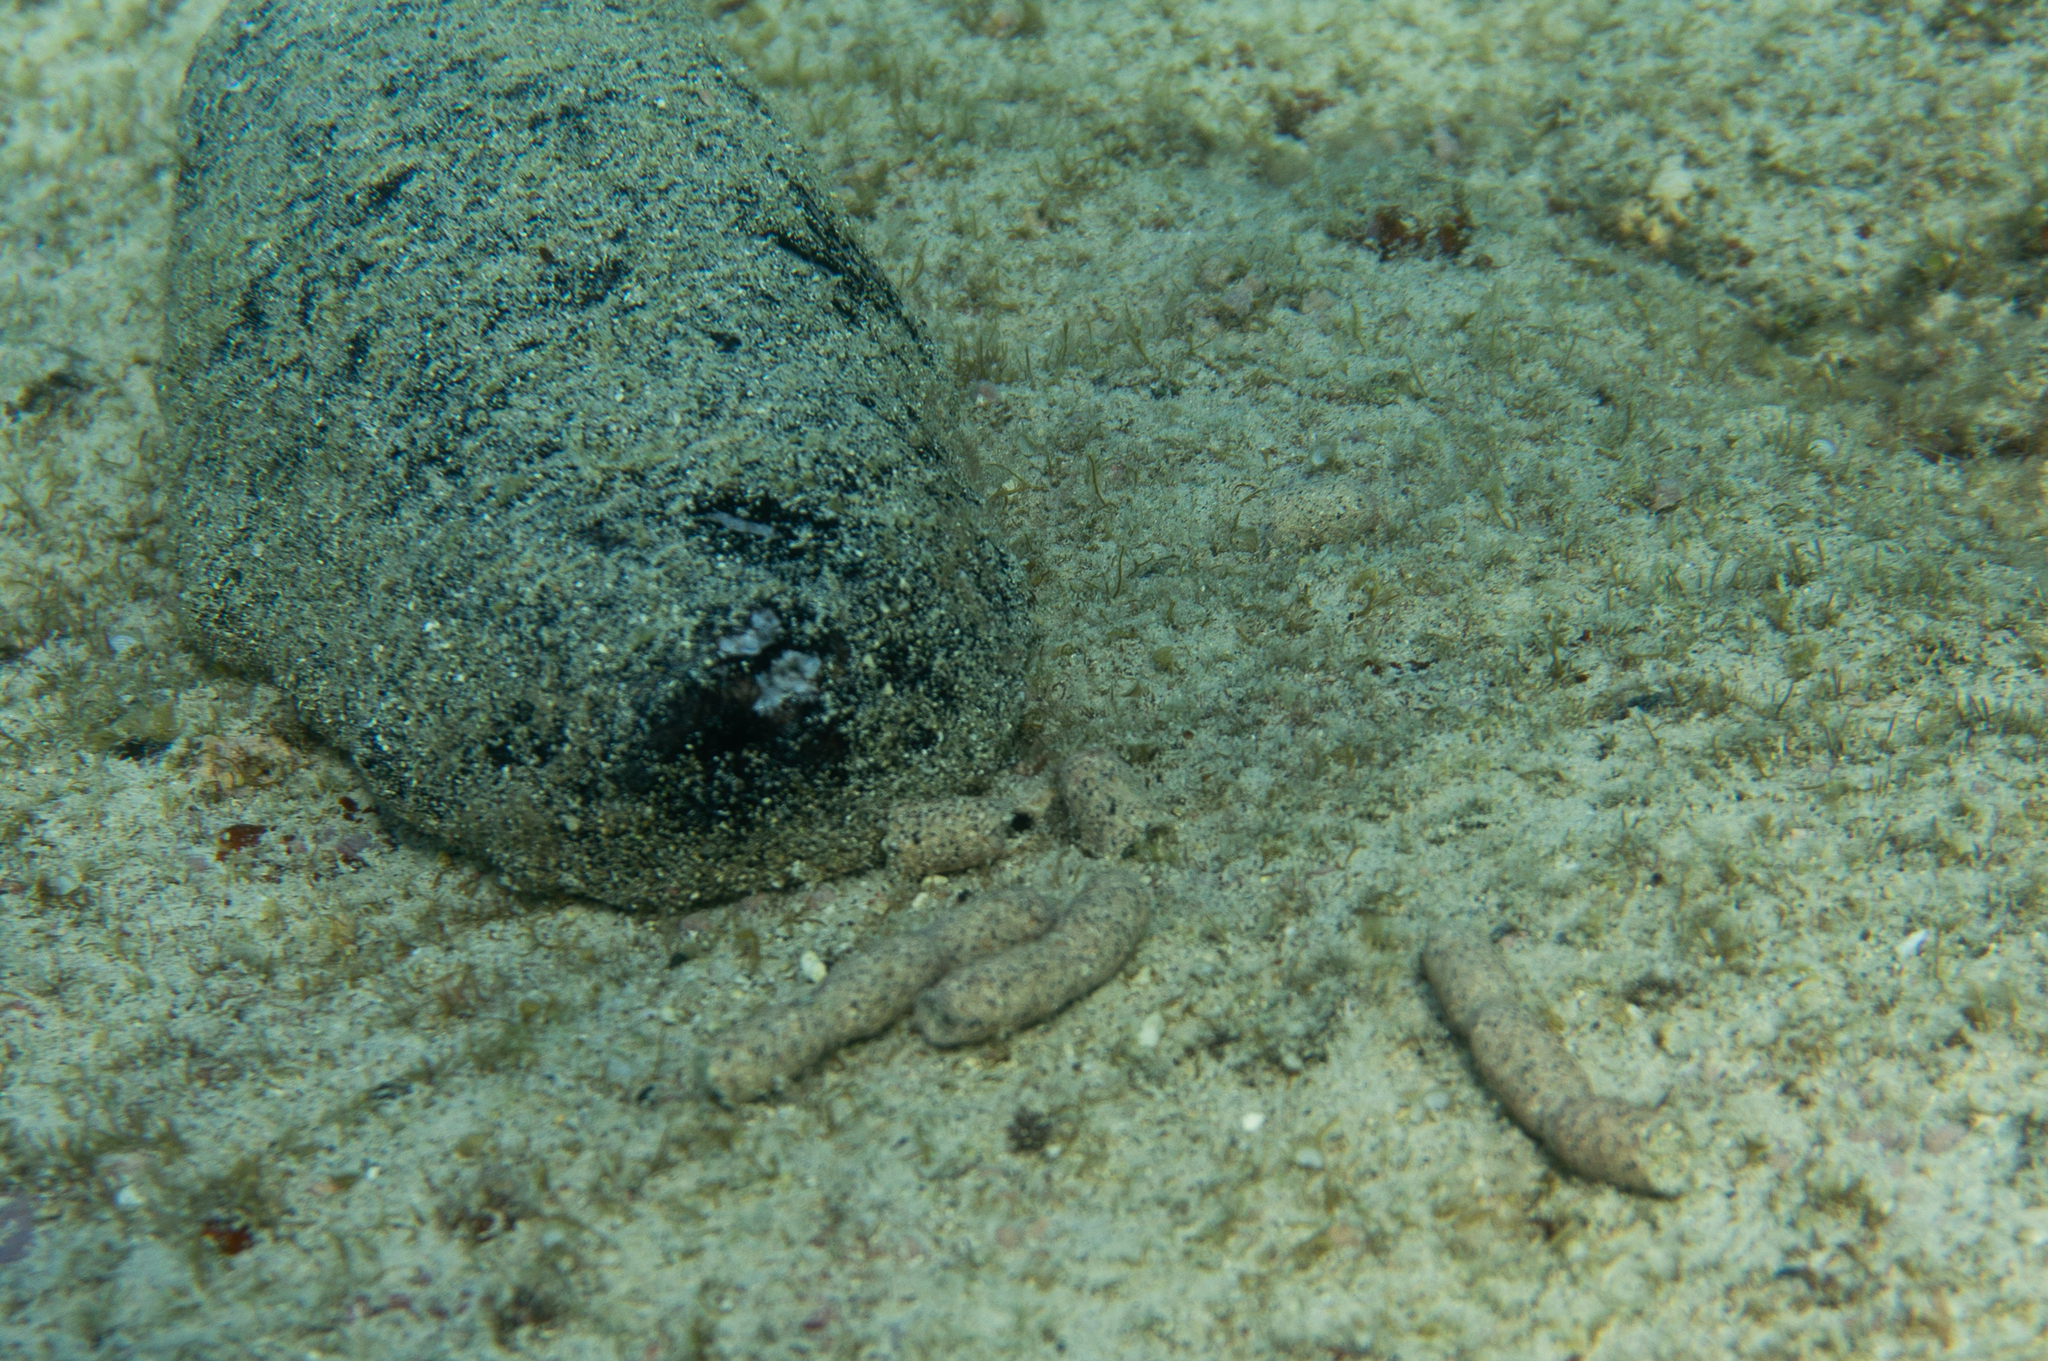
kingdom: Animalia
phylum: Echinodermata
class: Holothuroidea
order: Holothuriida
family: Holothuriidae
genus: Holothuria
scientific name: Holothuria whitmaei
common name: Black teatfish
